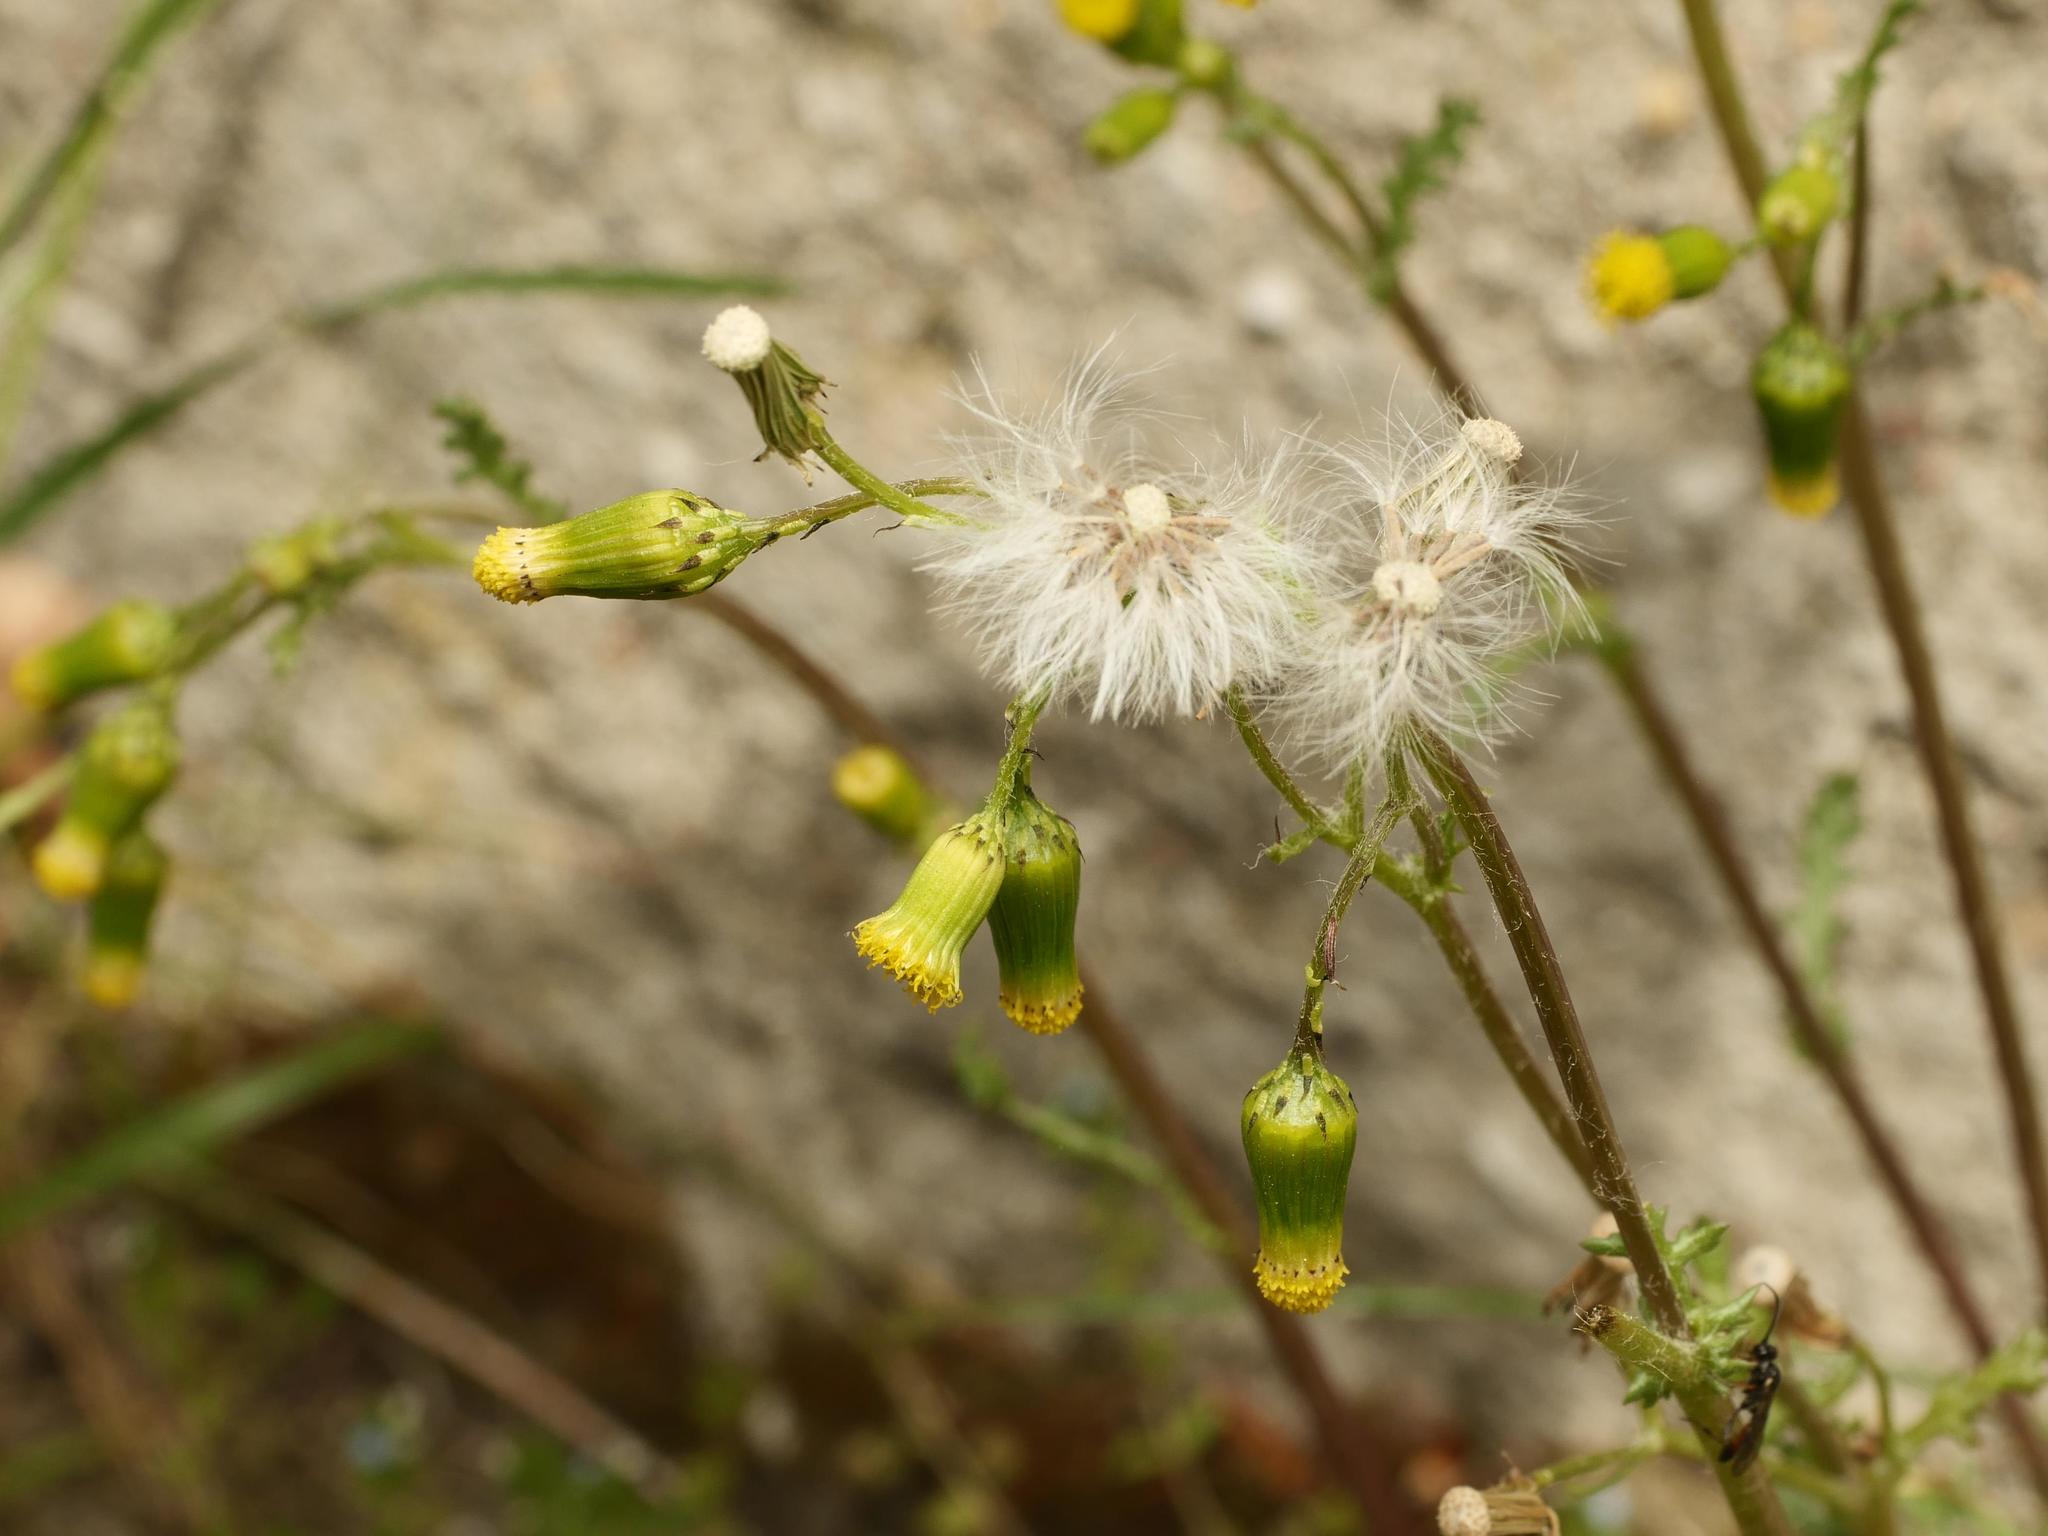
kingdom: Plantae
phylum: Tracheophyta
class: Magnoliopsida
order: Asterales
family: Asteraceae
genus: Senecio
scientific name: Senecio vulgaris
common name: Old-man-in-the-spring
